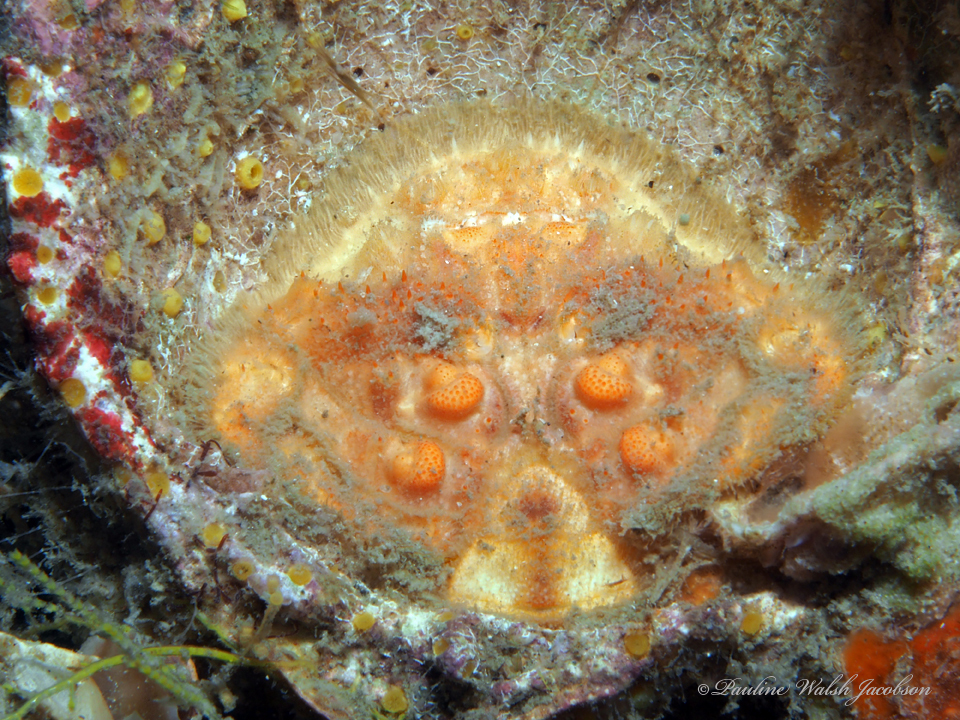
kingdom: Animalia
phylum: Arthropoda
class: Malacostraca
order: Decapoda
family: Dromiidae
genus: Hypoconcha
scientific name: Hypoconcha spinosissima
